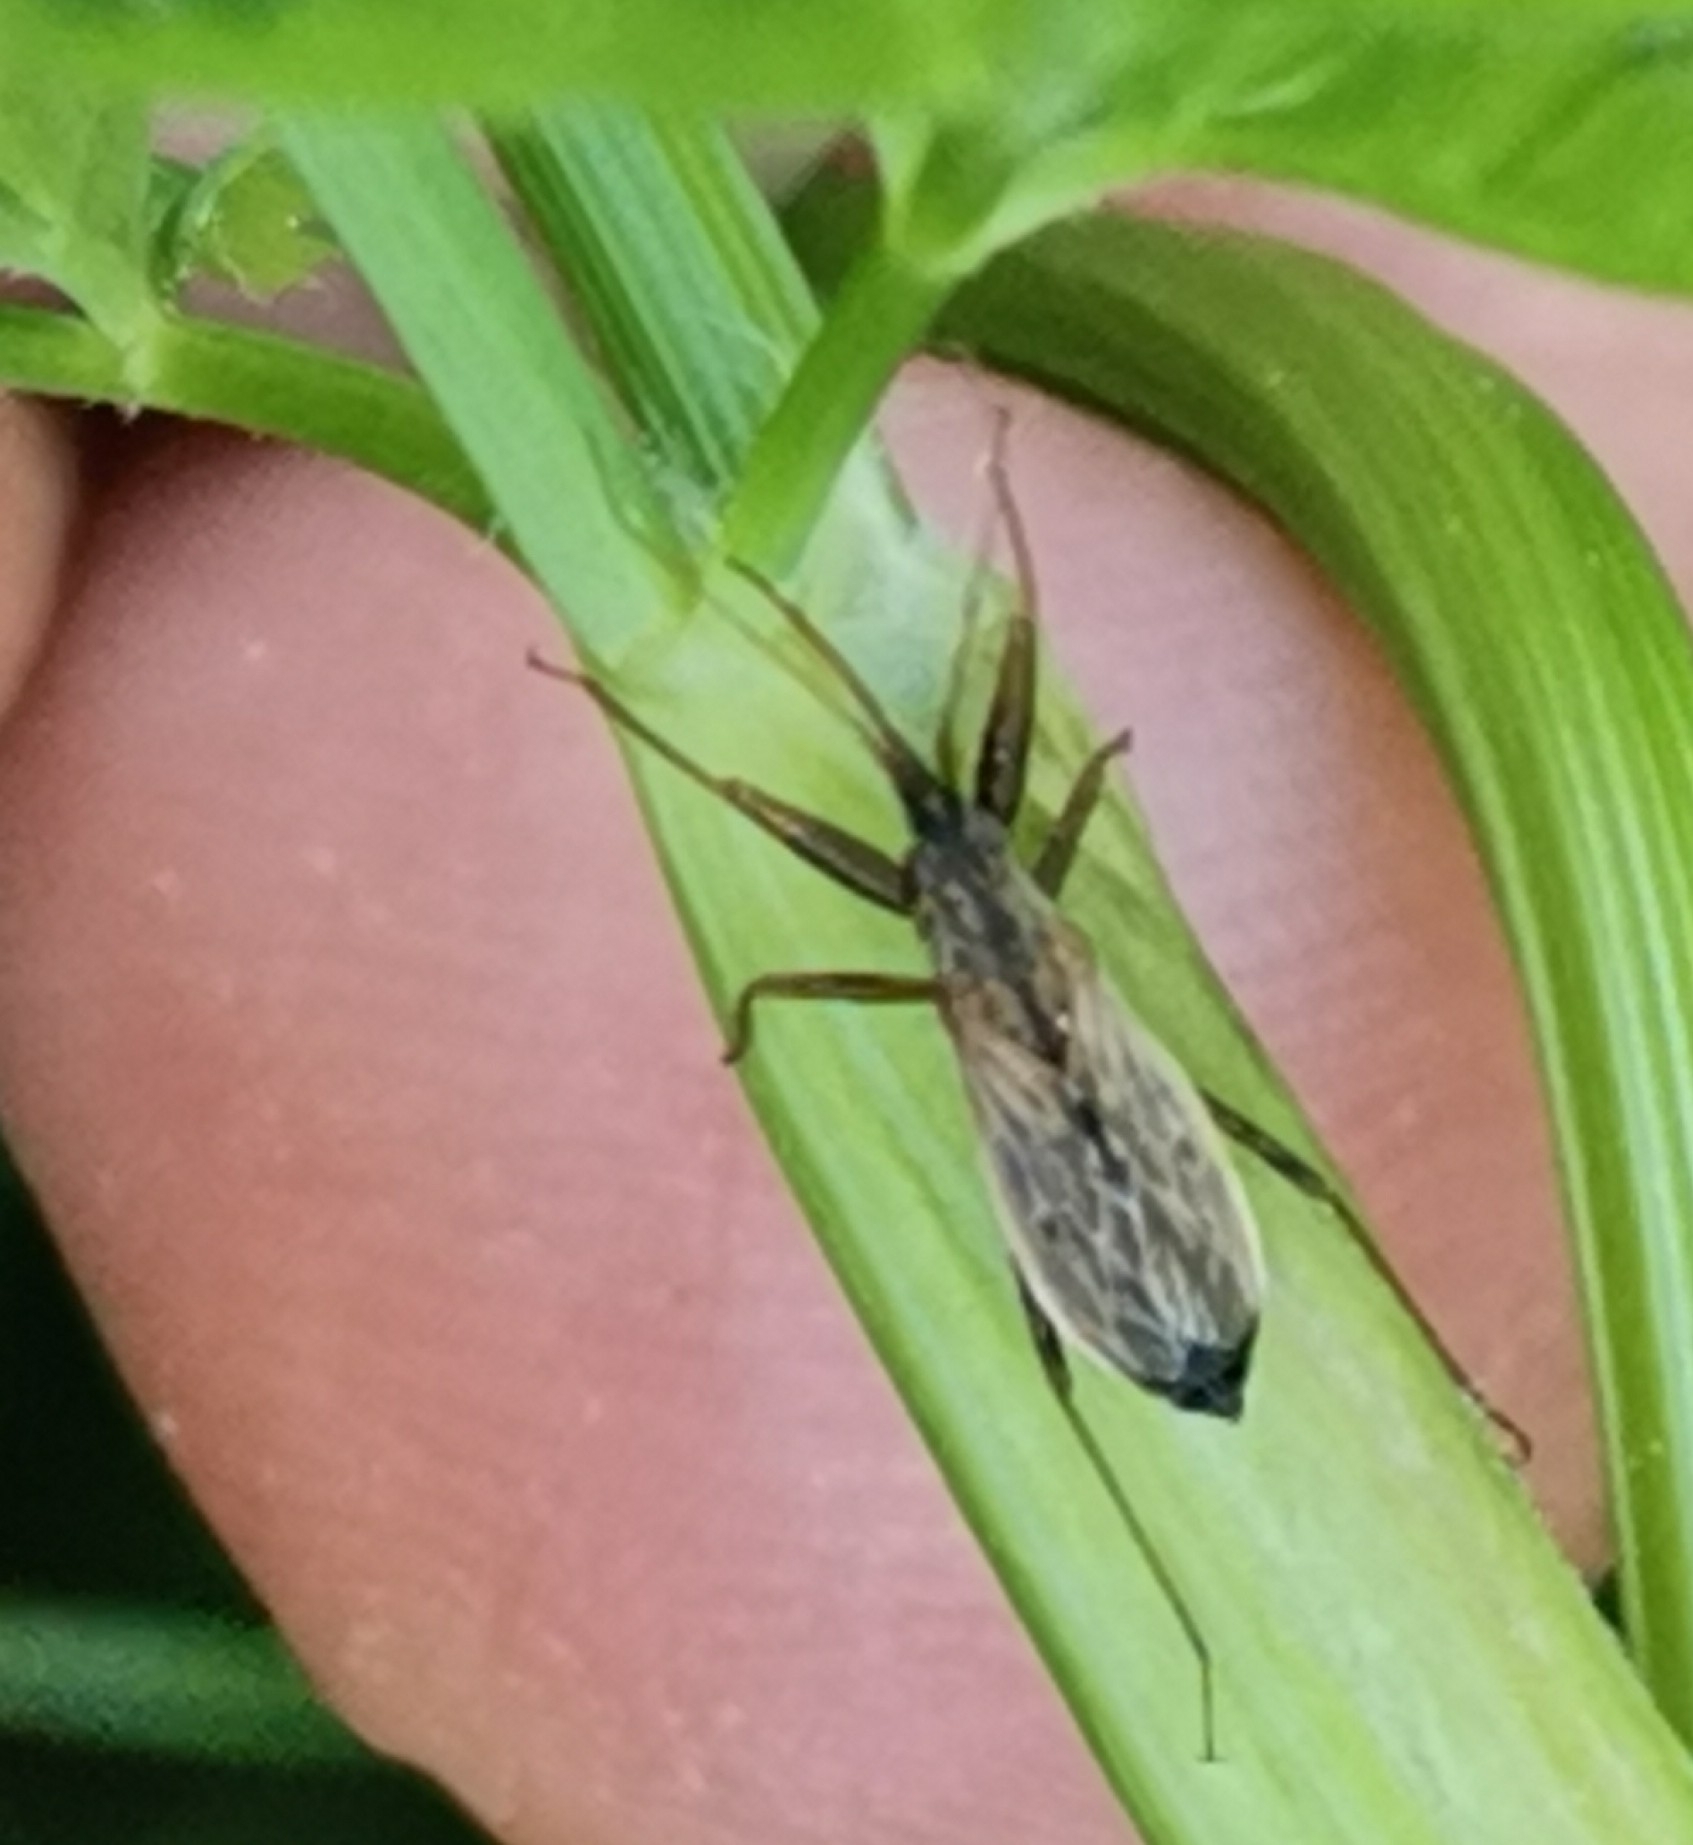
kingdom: Animalia
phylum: Arthropoda
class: Insecta
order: Hemiptera
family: Nabidae
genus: Nabis
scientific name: Nabis brevis
